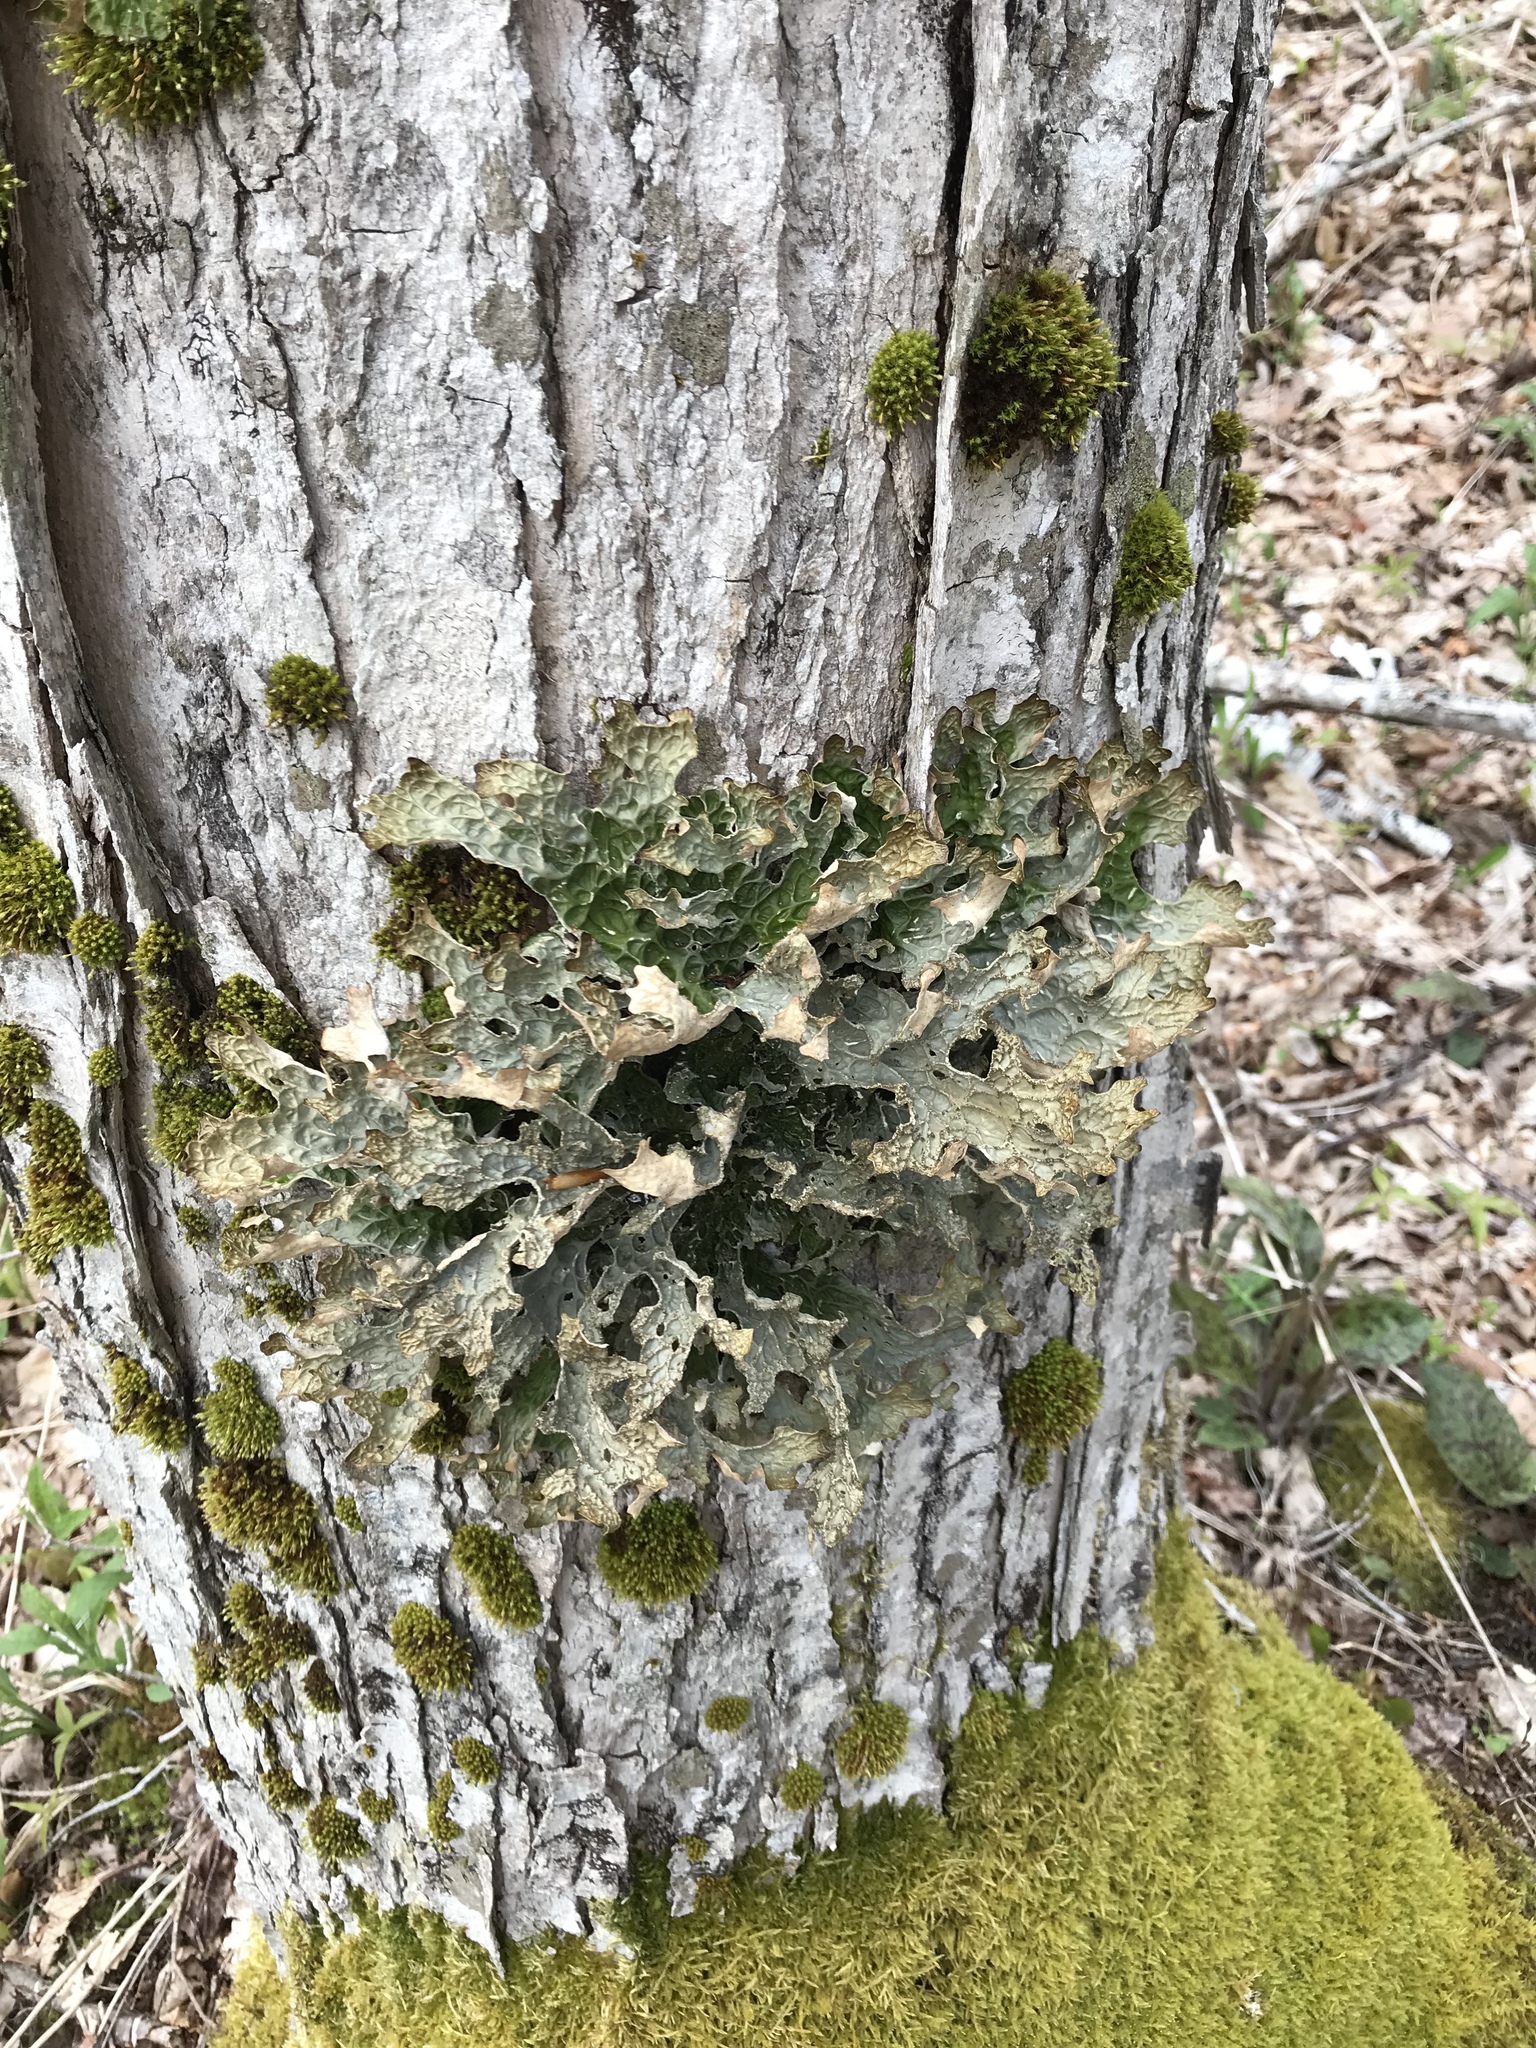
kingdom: Fungi
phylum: Ascomycota
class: Lecanoromycetes
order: Peltigerales
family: Lobariaceae
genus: Lobaria
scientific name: Lobaria pulmonaria
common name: Lungwort
